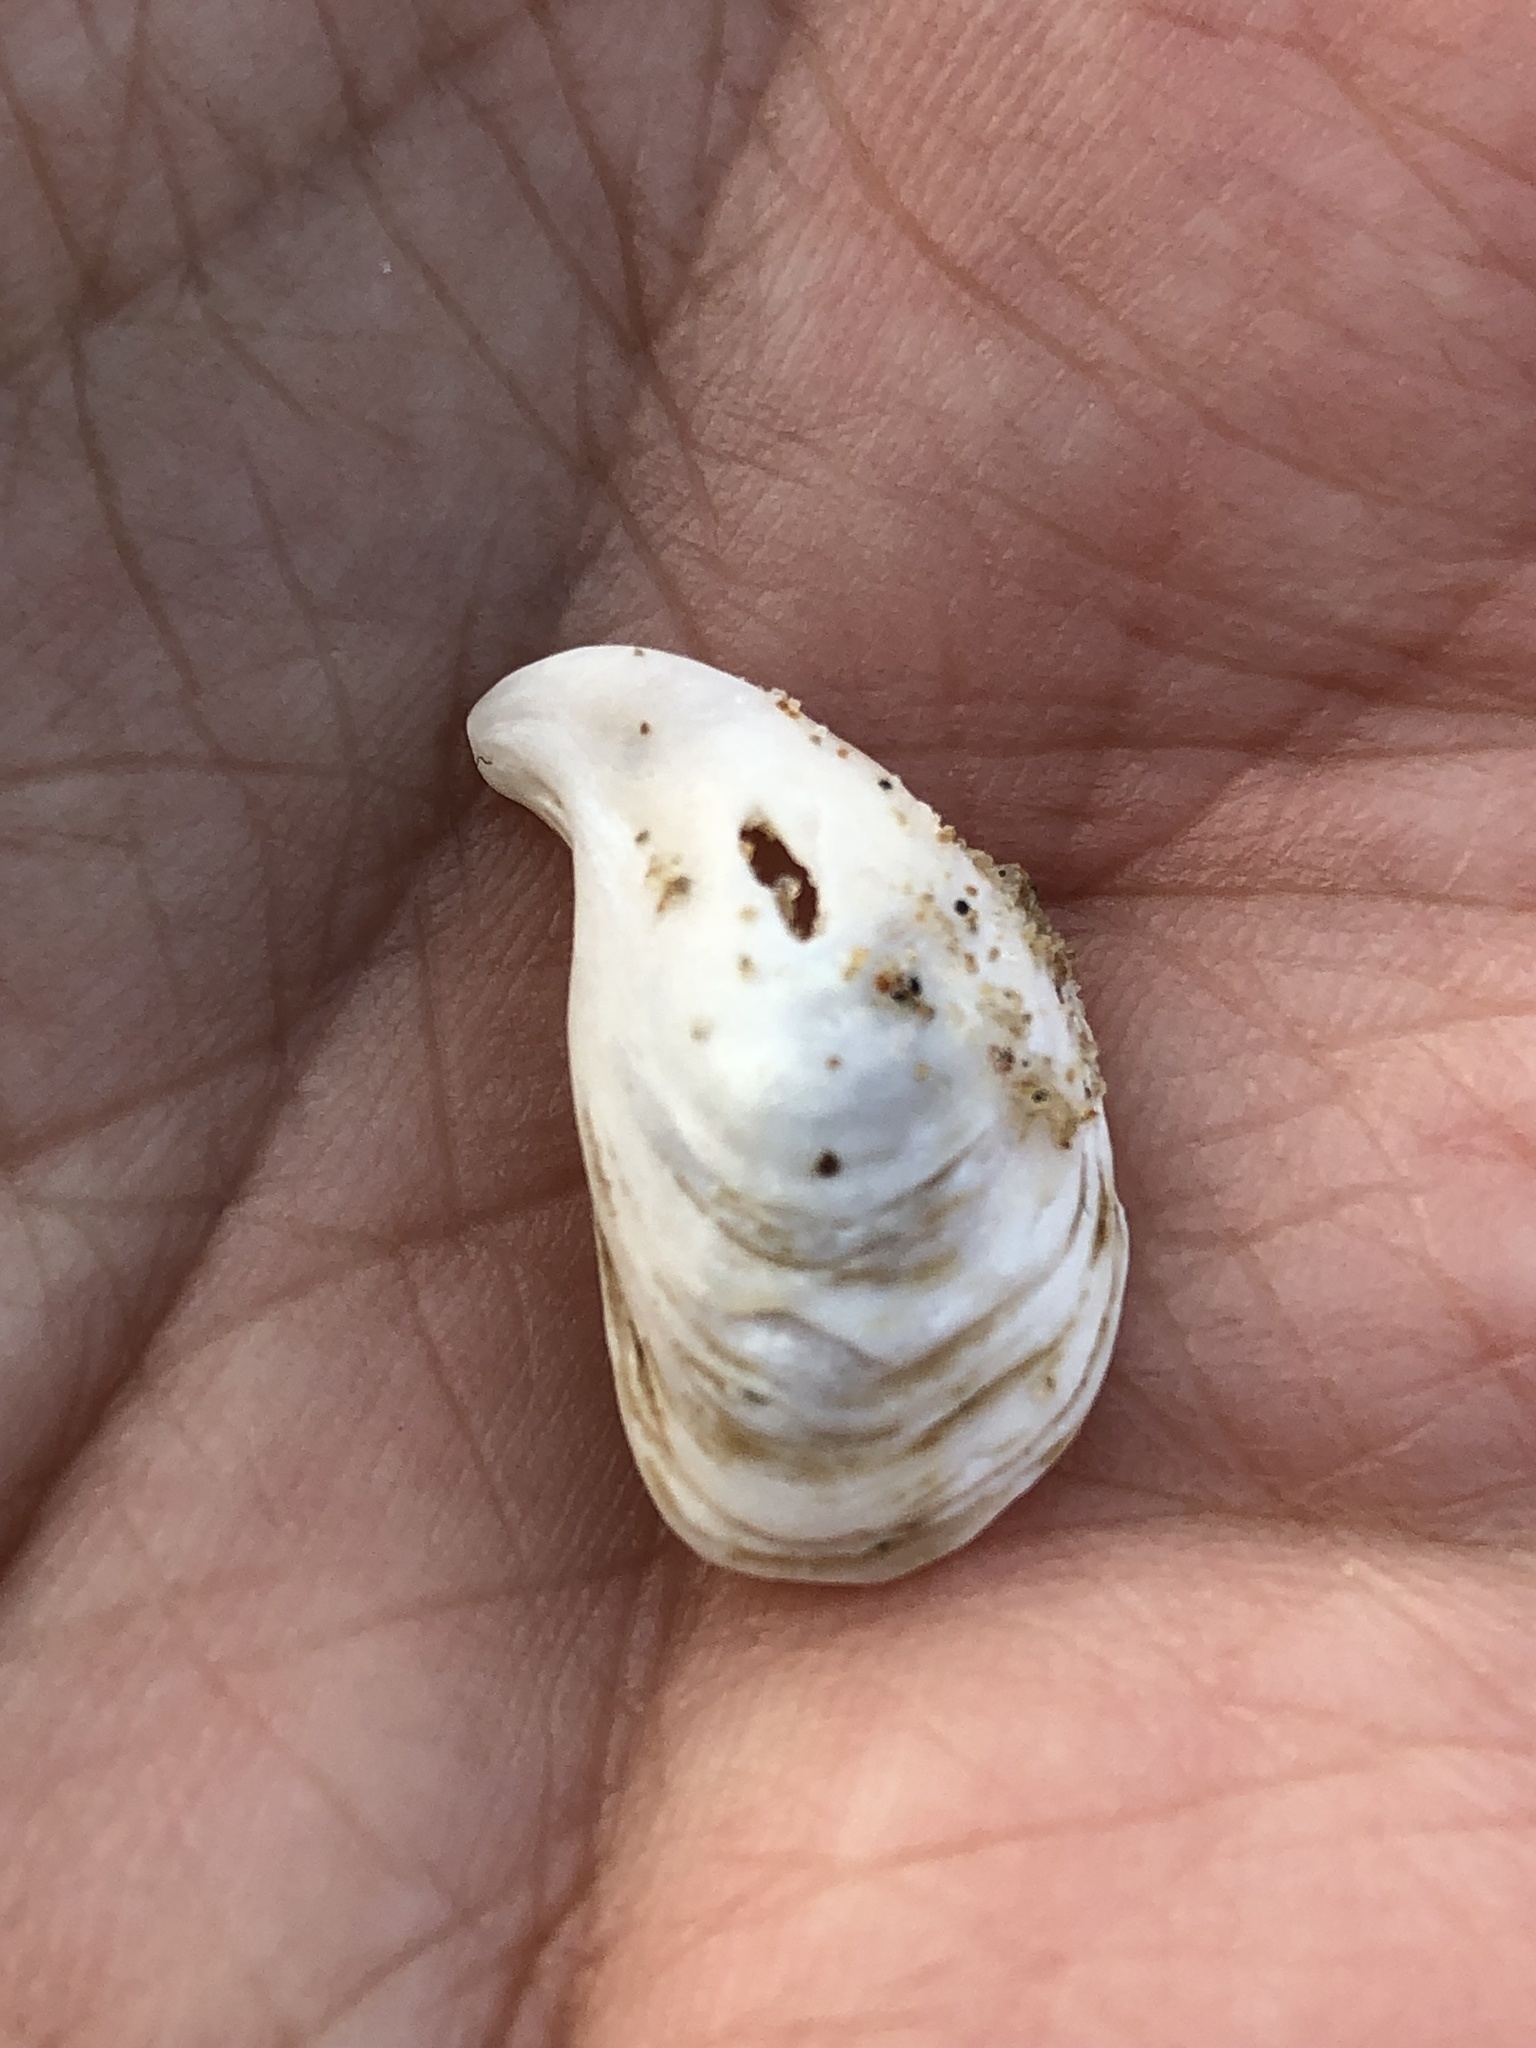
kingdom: Animalia
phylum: Mollusca
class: Bivalvia
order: Myida
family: Dreissenidae
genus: Dreissena
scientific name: Dreissena bugensis
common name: Quagga mussel
